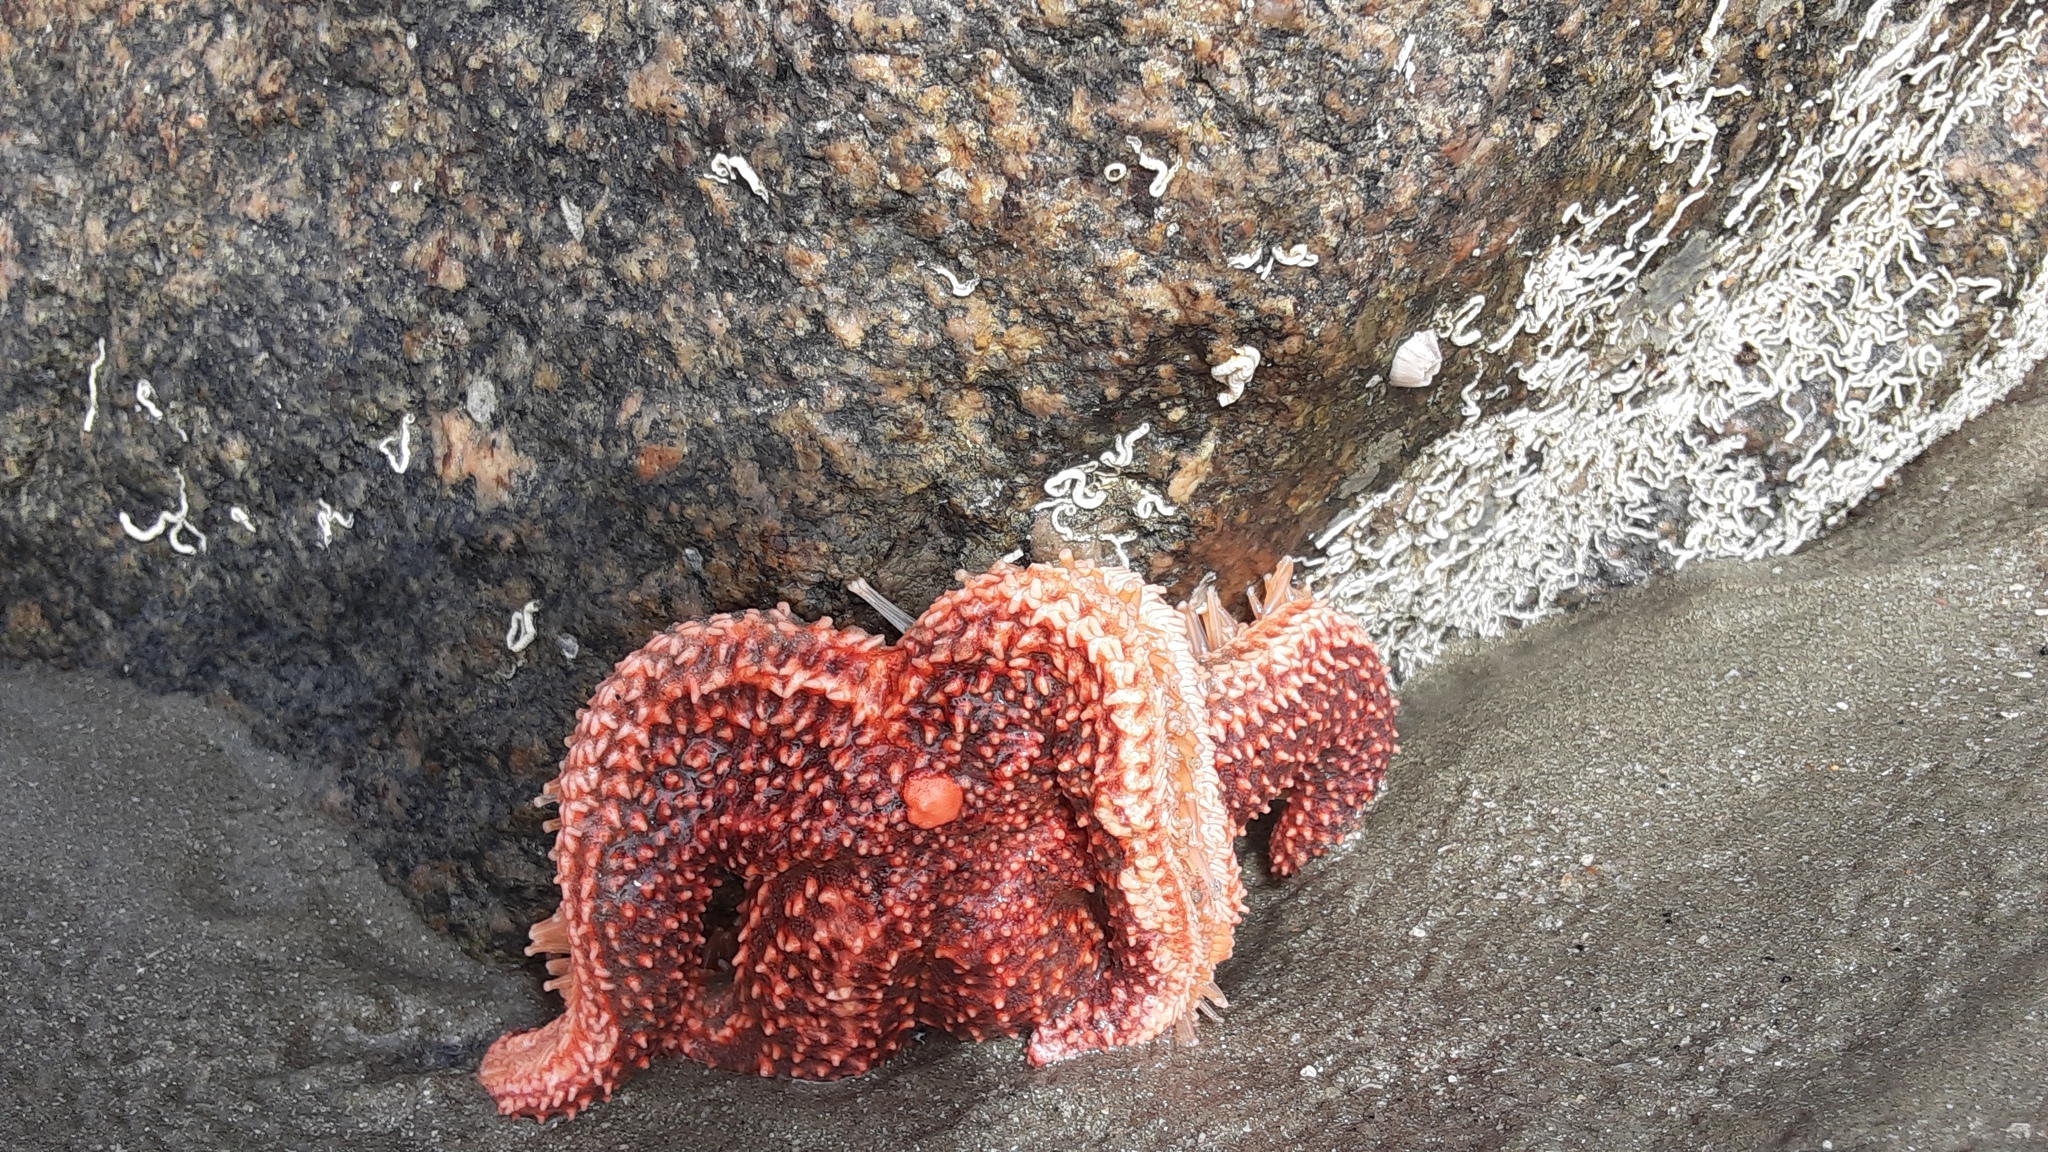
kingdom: Animalia
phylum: Echinodermata
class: Asteroidea
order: Forcipulatida
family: Asteriidae
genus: Asterias
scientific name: Asterias forbesi
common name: Forbes's sea star
